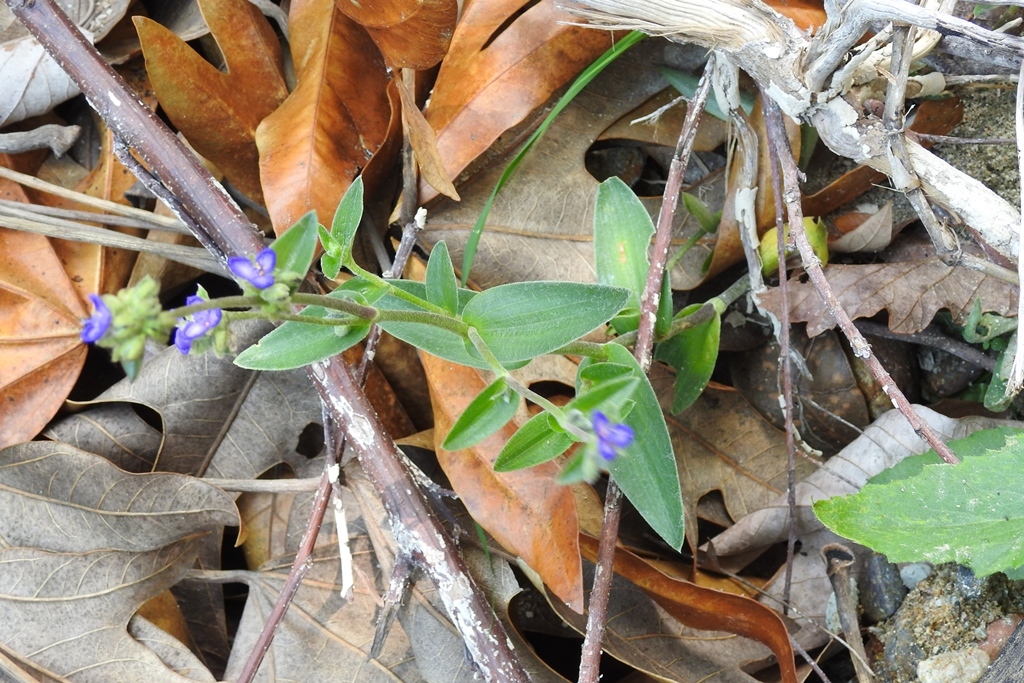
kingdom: Plantae
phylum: Tracheophyta
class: Liliopsida
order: Commelinales
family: Commelinaceae
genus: Tradescantia
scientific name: Tradescantia crassifolia
